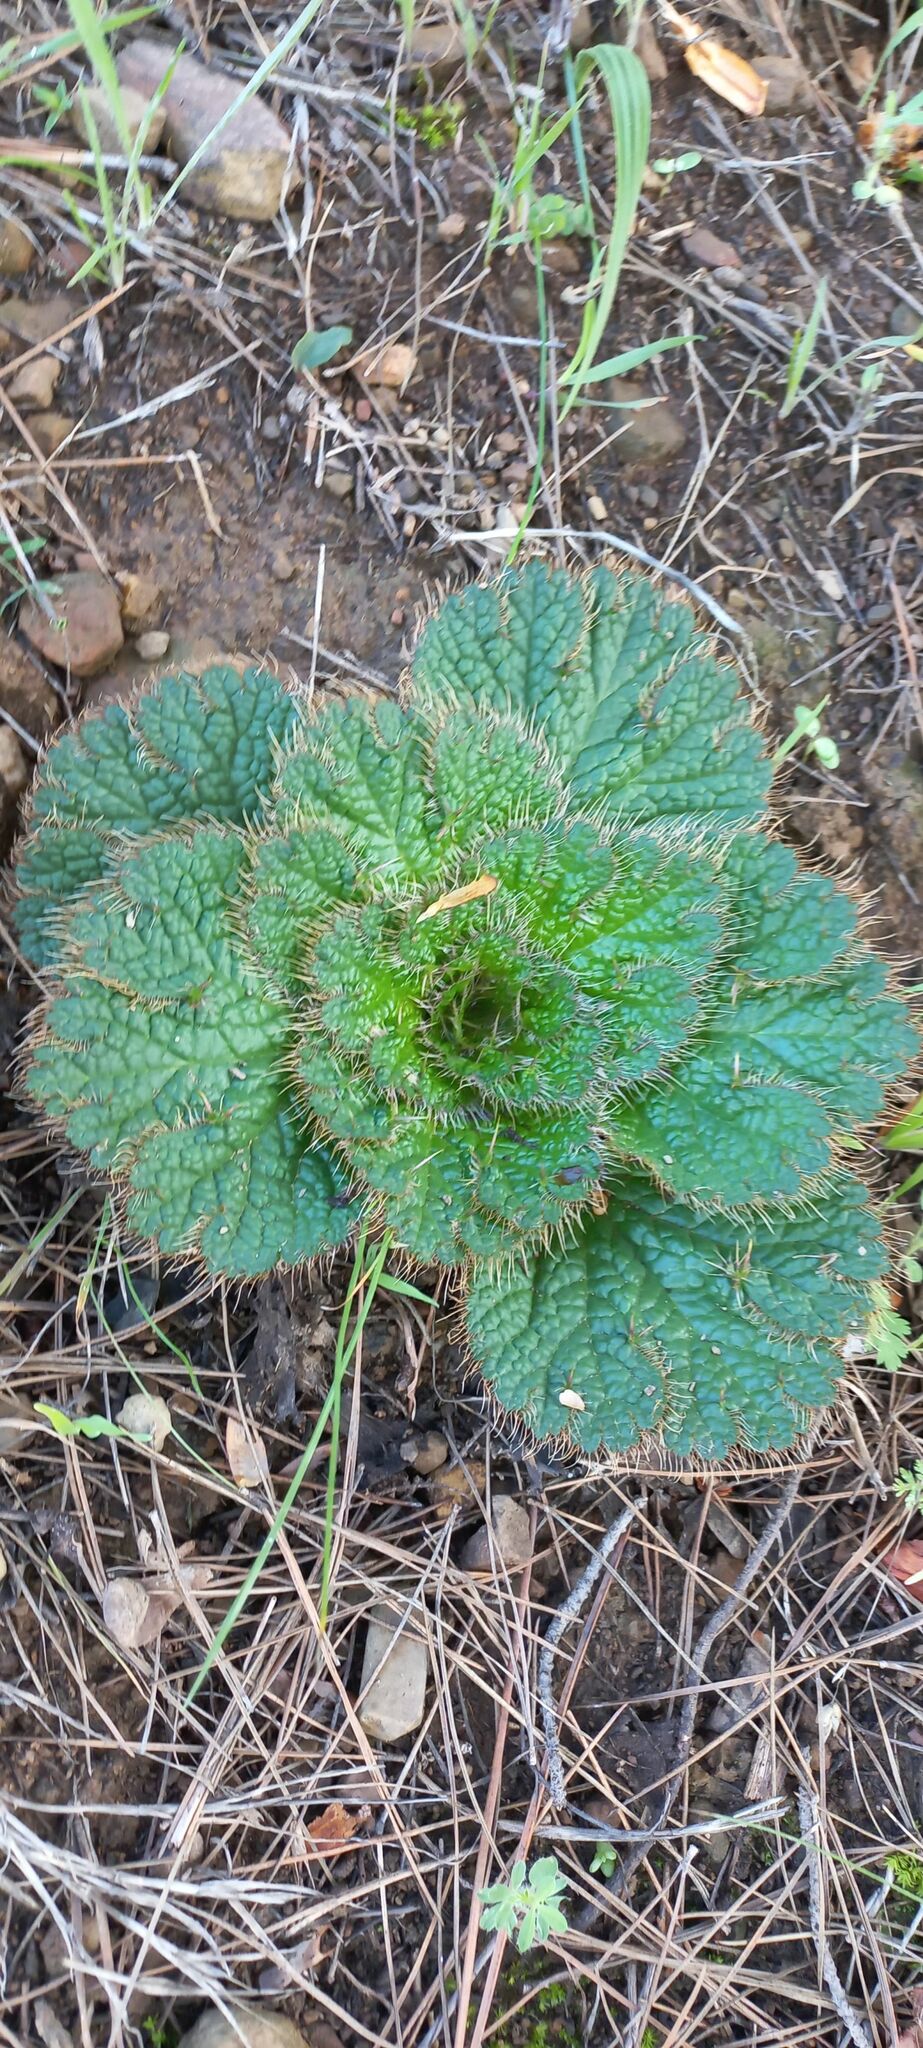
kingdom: Plantae
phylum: Tracheophyta
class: Magnoliopsida
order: Apiales
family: Apiaceae
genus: Arctopus
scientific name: Arctopus echinatus
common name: Platdoring
